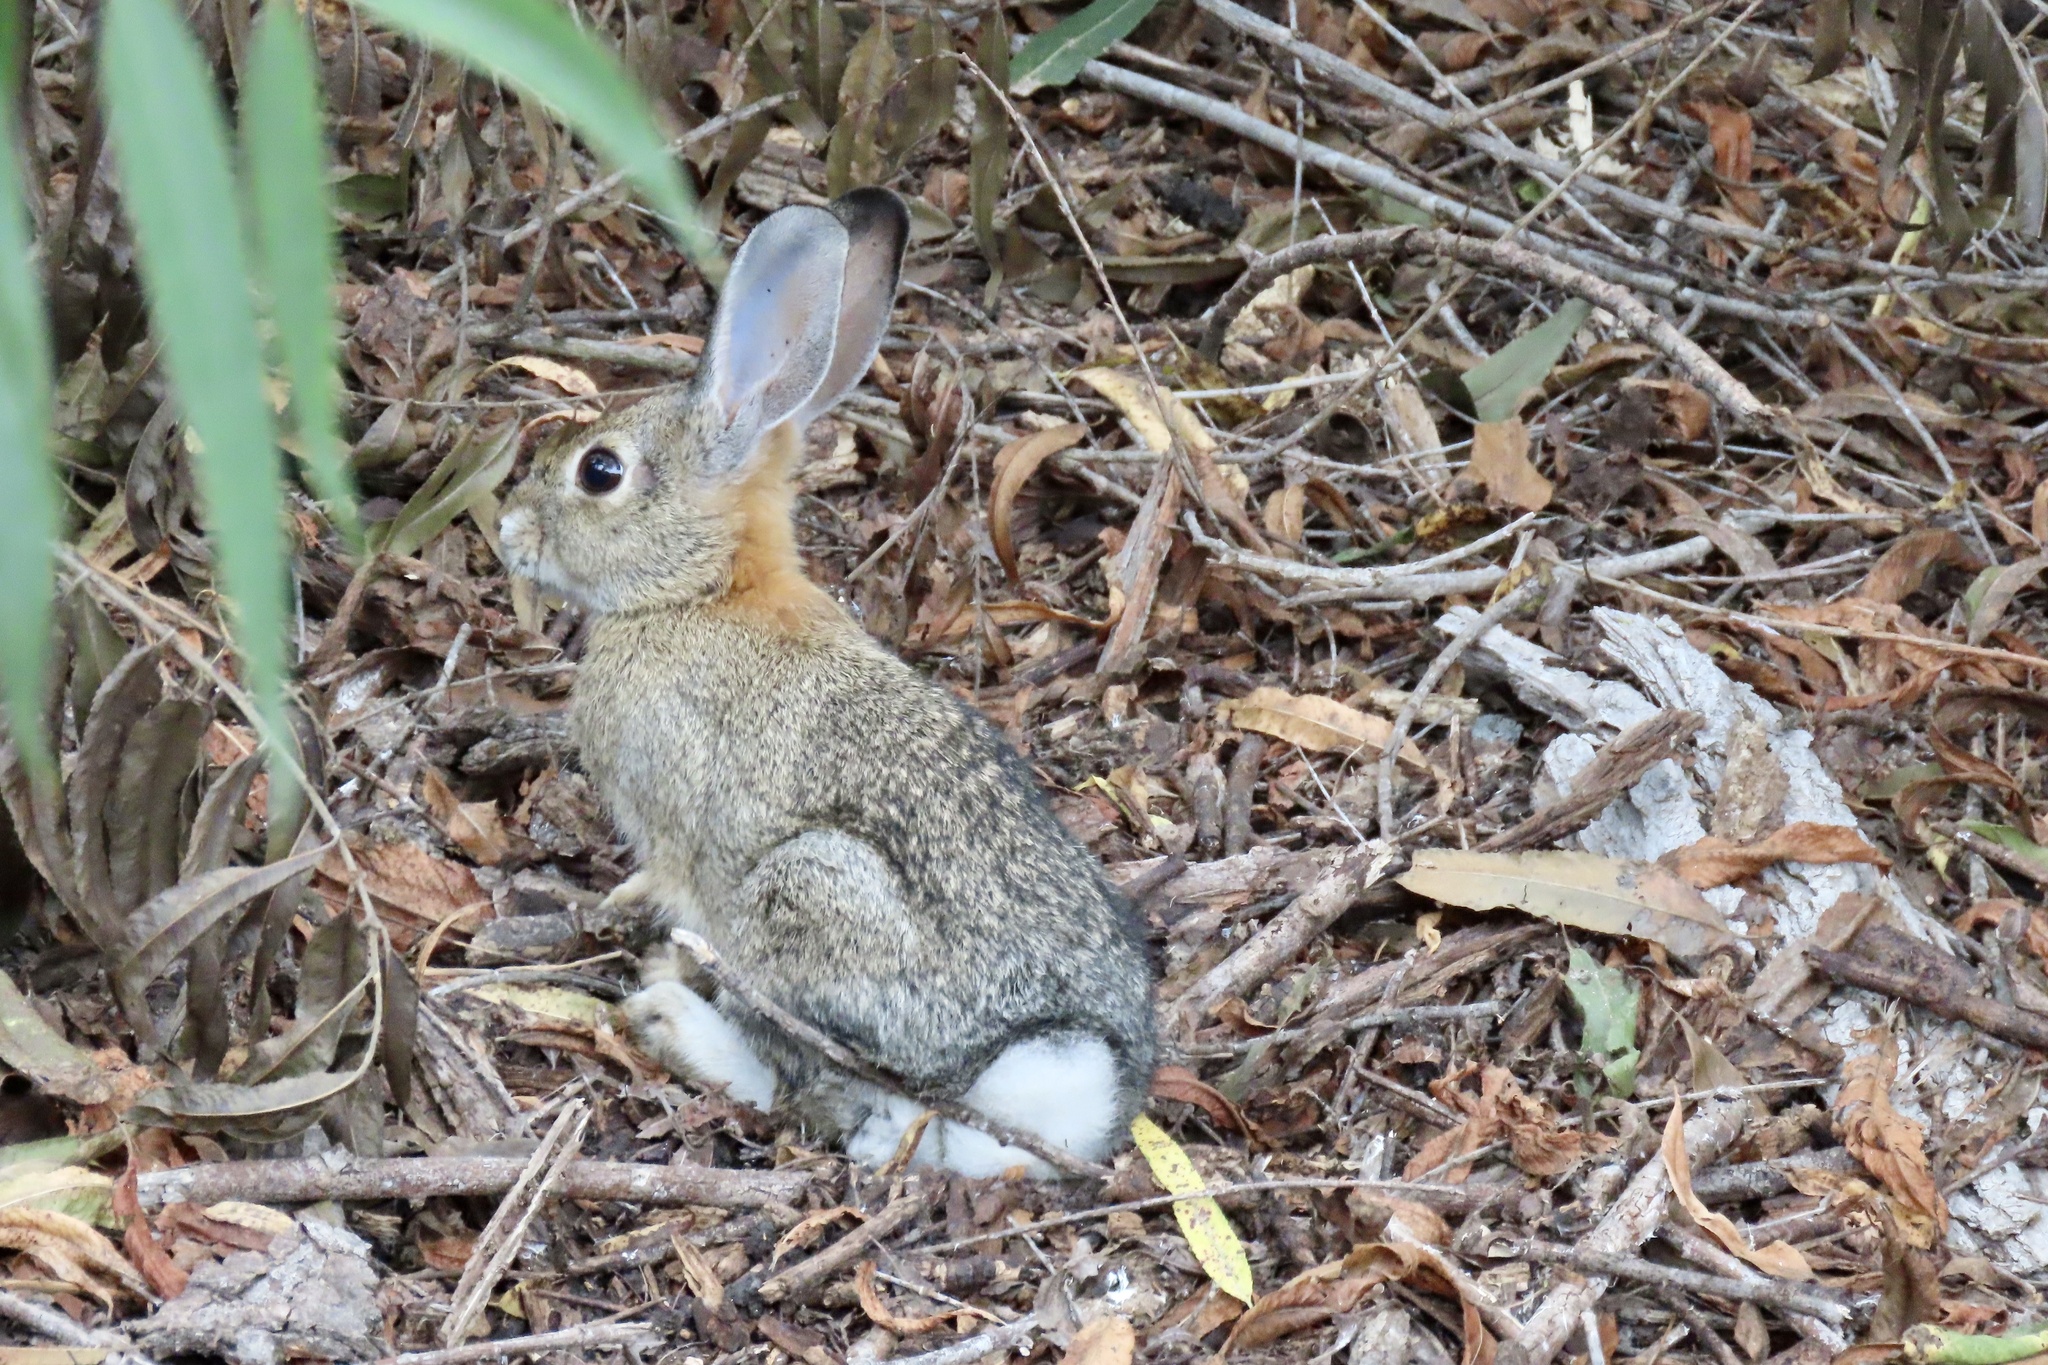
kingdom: Animalia
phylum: Chordata
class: Mammalia
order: Lagomorpha
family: Leporidae
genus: Sylvilagus
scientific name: Sylvilagus audubonii
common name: Desert cottontail
